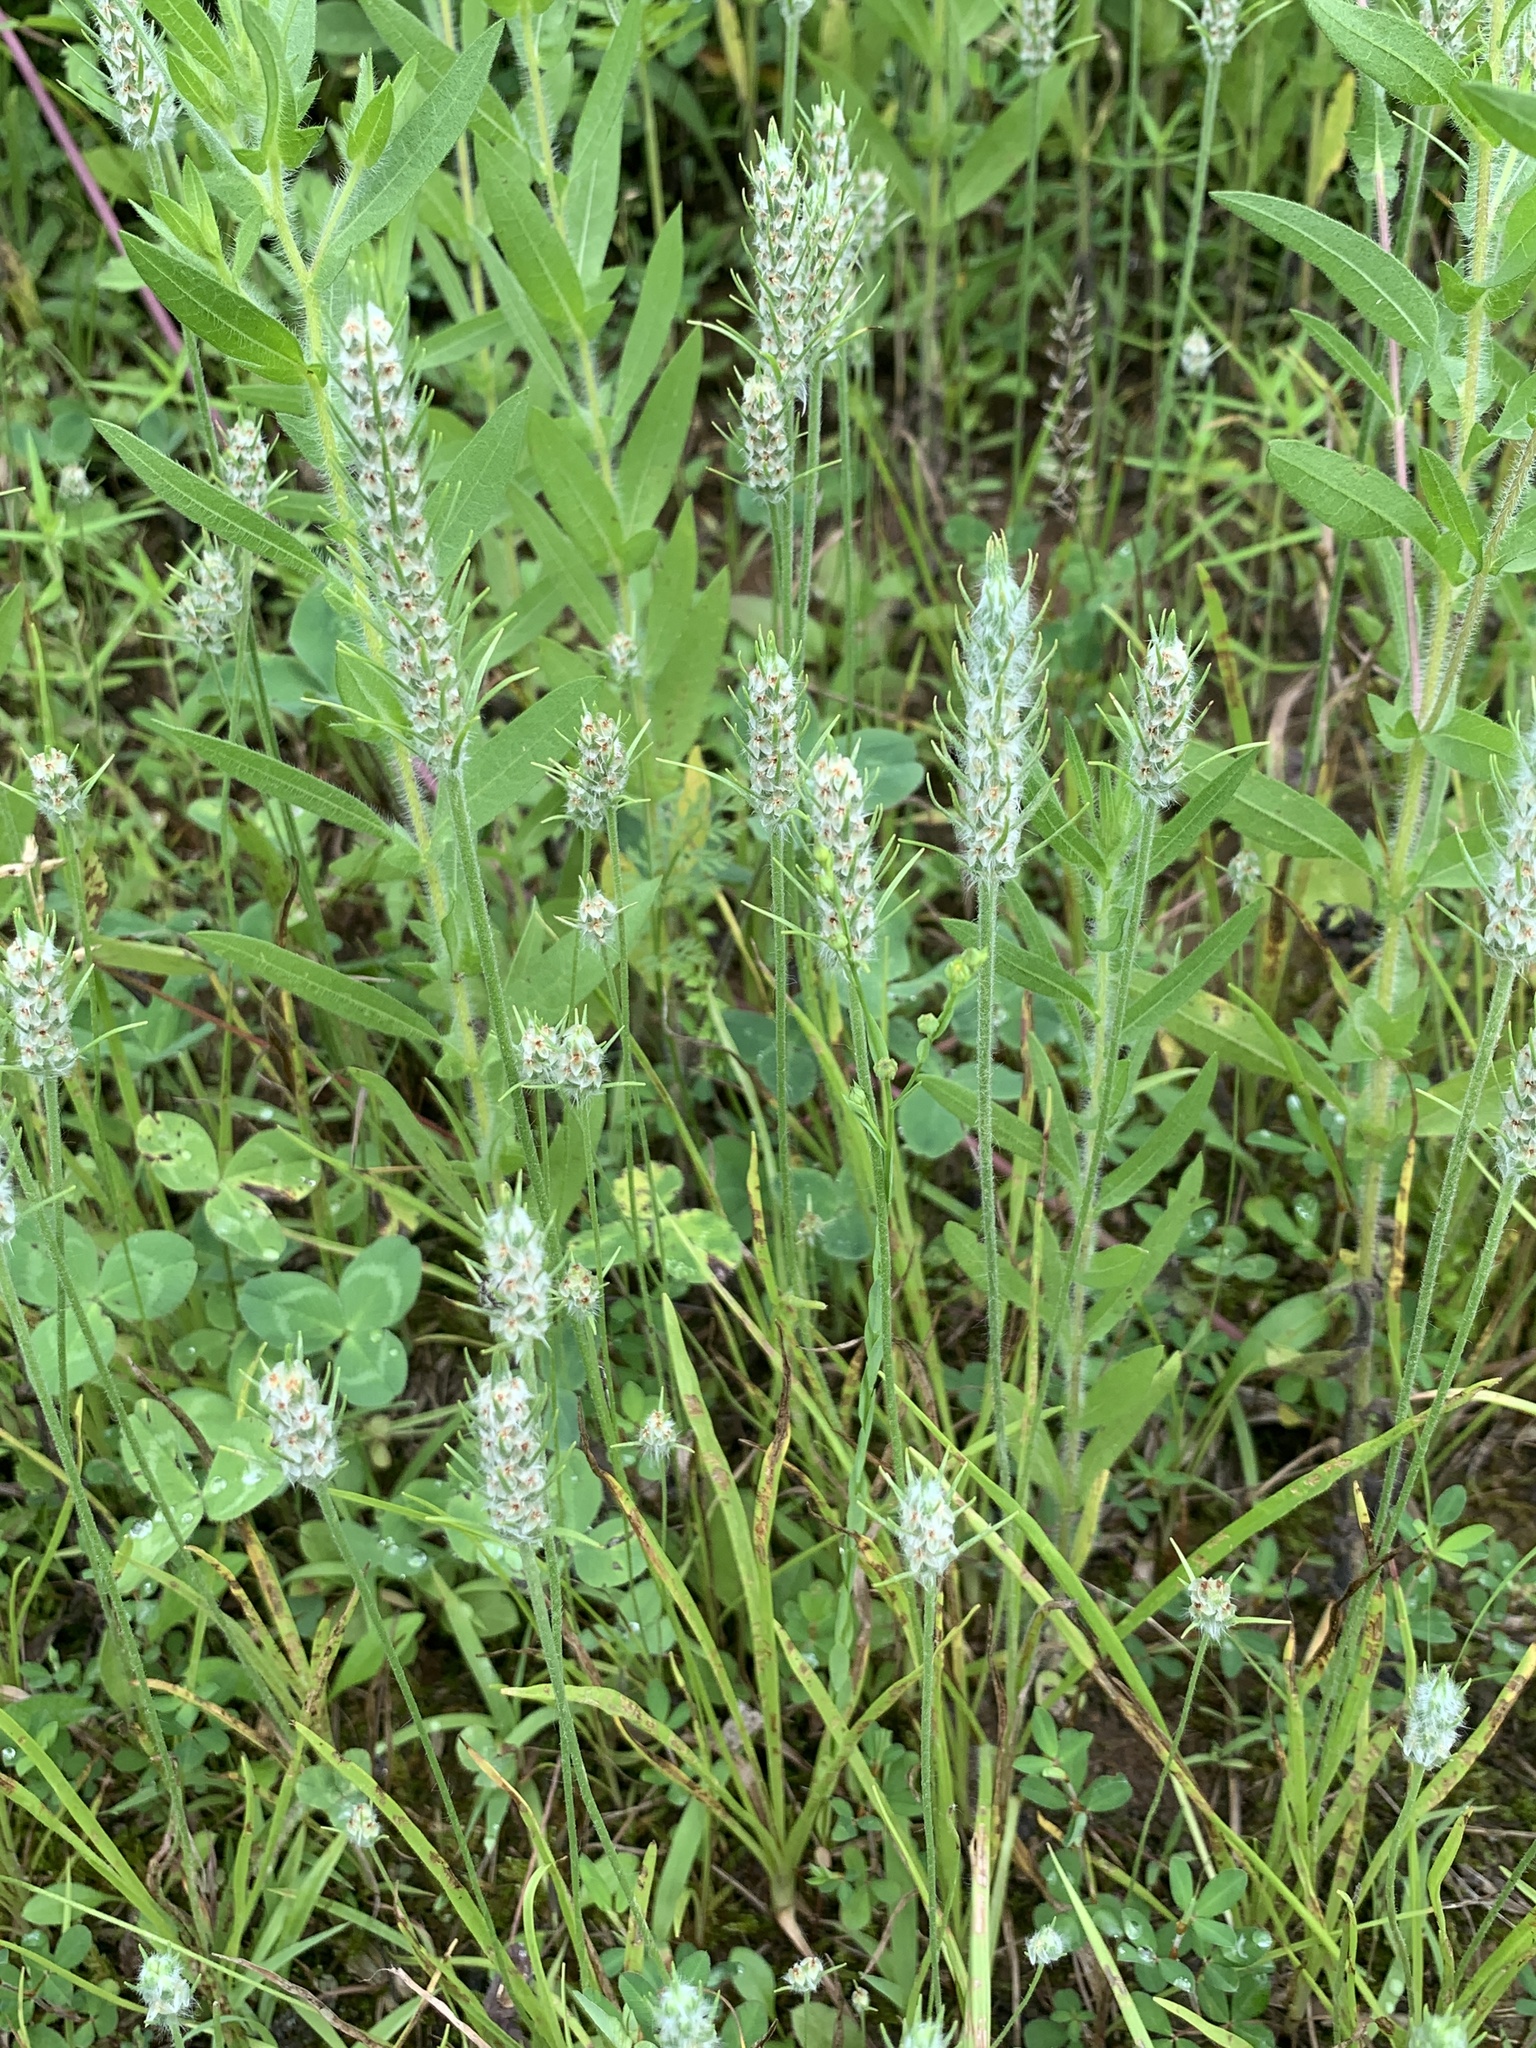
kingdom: Plantae
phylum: Tracheophyta
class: Magnoliopsida
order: Lamiales
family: Plantaginaceae
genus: Plantago
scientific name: Plantago aristata
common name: Bracted plantain
